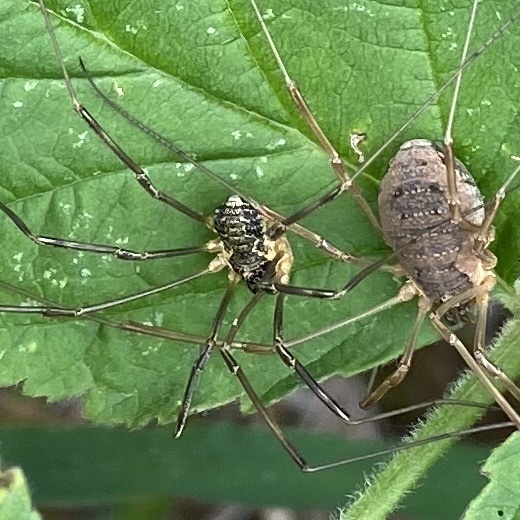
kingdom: Animalia
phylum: Arthropoda
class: Arachnida
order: Opiliones
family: Phalangiidae
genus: Mitopus
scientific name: Mitopus morio
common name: Saddleback harvestman
